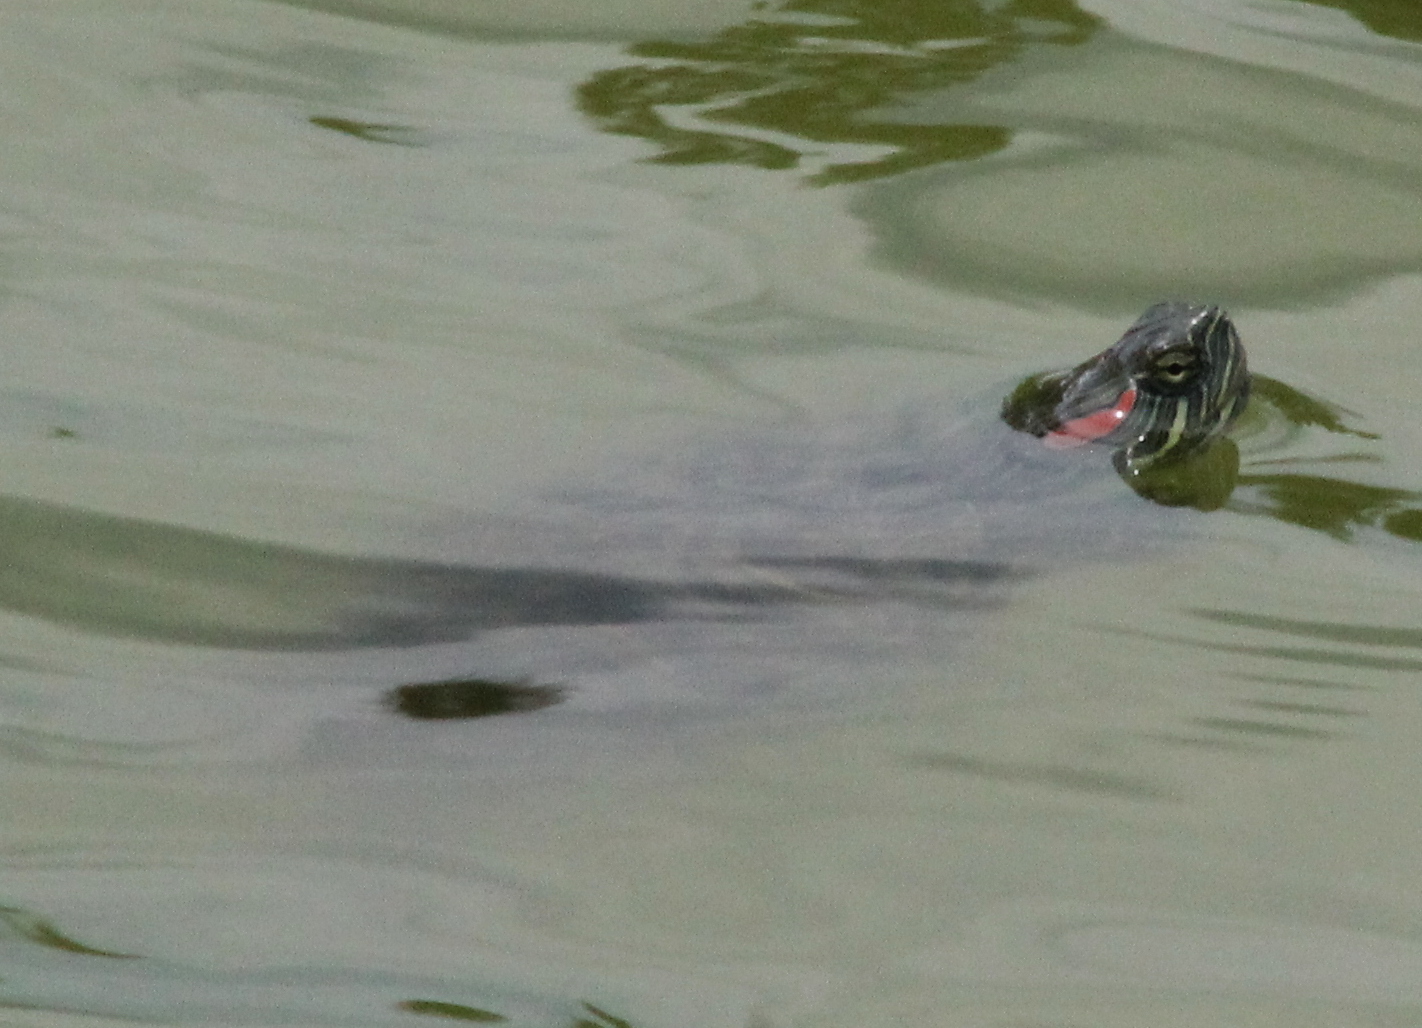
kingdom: Animalia
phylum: Chordata
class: Testudines
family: Emydidae
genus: Trachemys
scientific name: Trachemys scripta
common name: Slider
